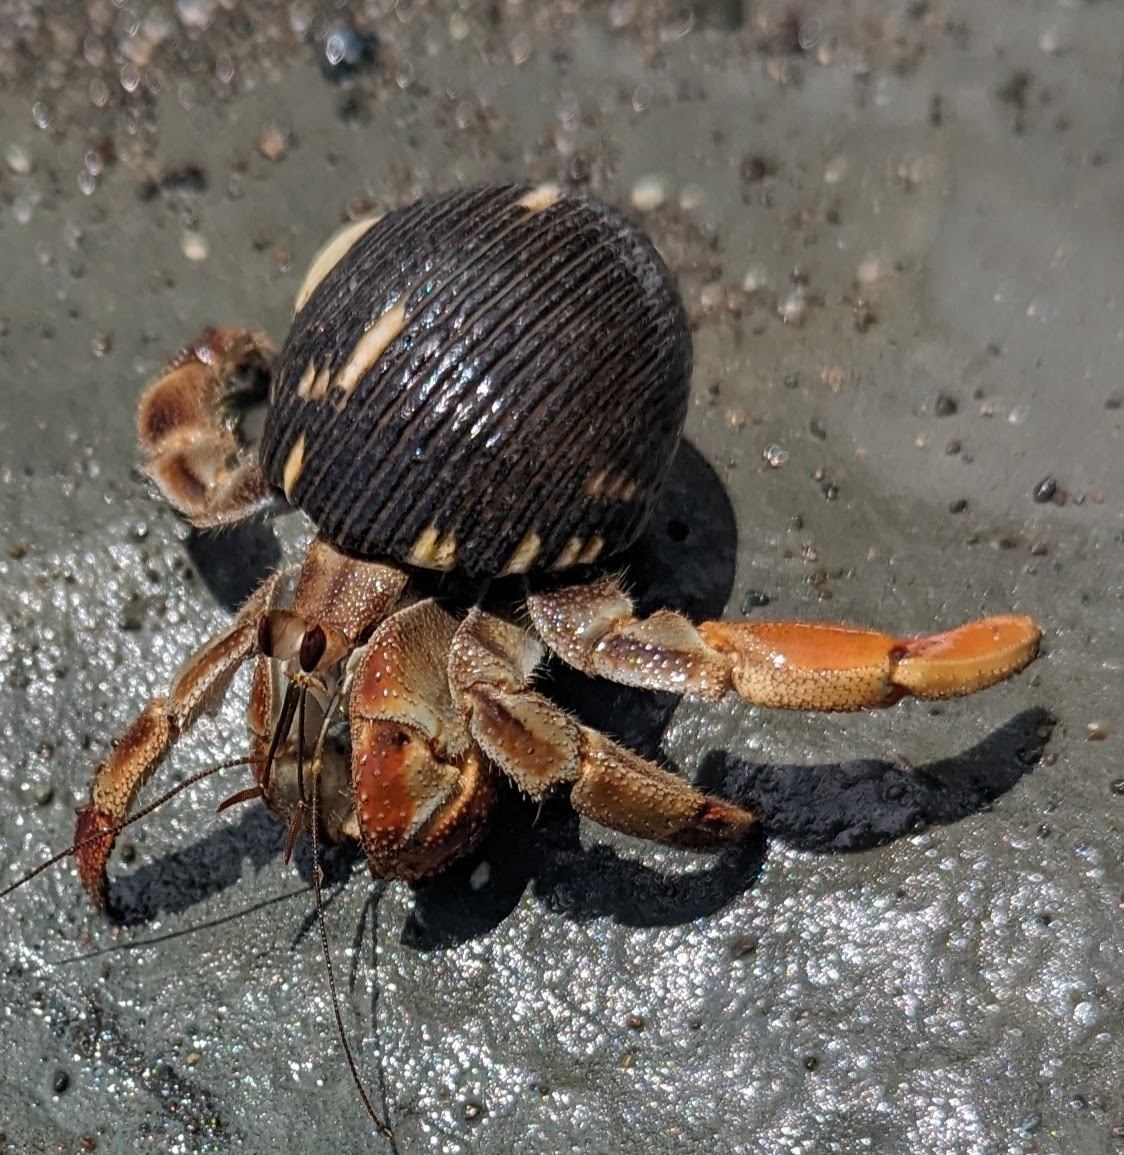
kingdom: Animalia
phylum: Arthropoda
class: Malacostraca
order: Decapoda
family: Coenobitidae
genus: Coenobita
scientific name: Coenobita compressus
